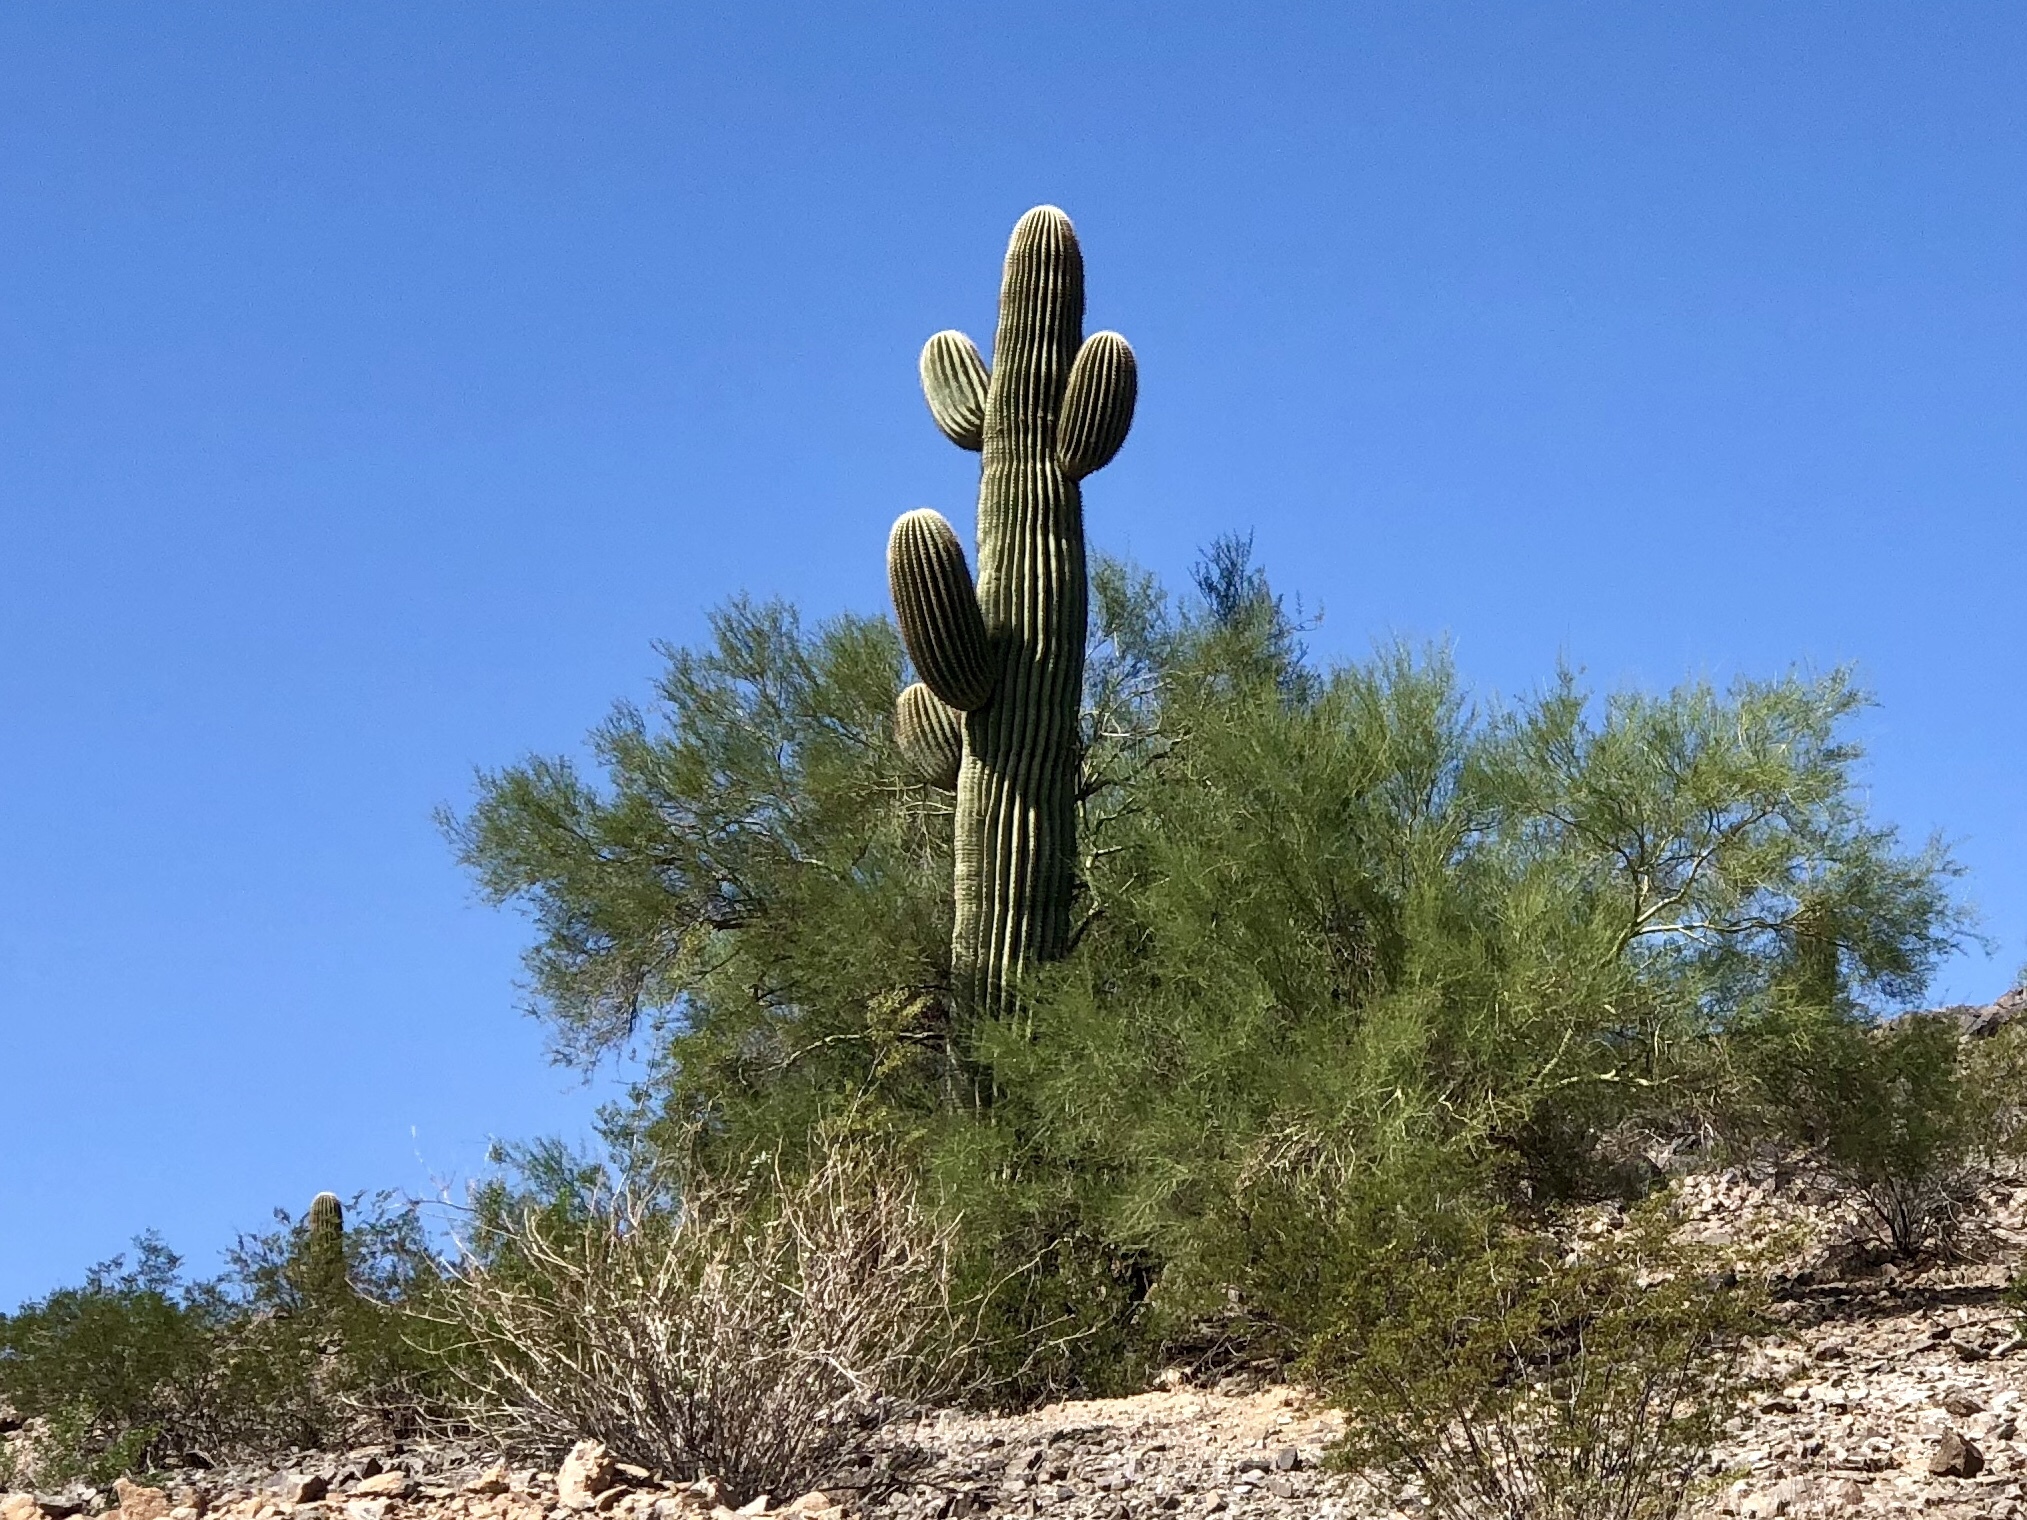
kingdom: Plantae
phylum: Tracheophyta
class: Magnoliopsida
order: Caryophyllales
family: Cactaceae
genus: Carnegiea
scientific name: Carnegiea gigantea
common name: Saguaro
